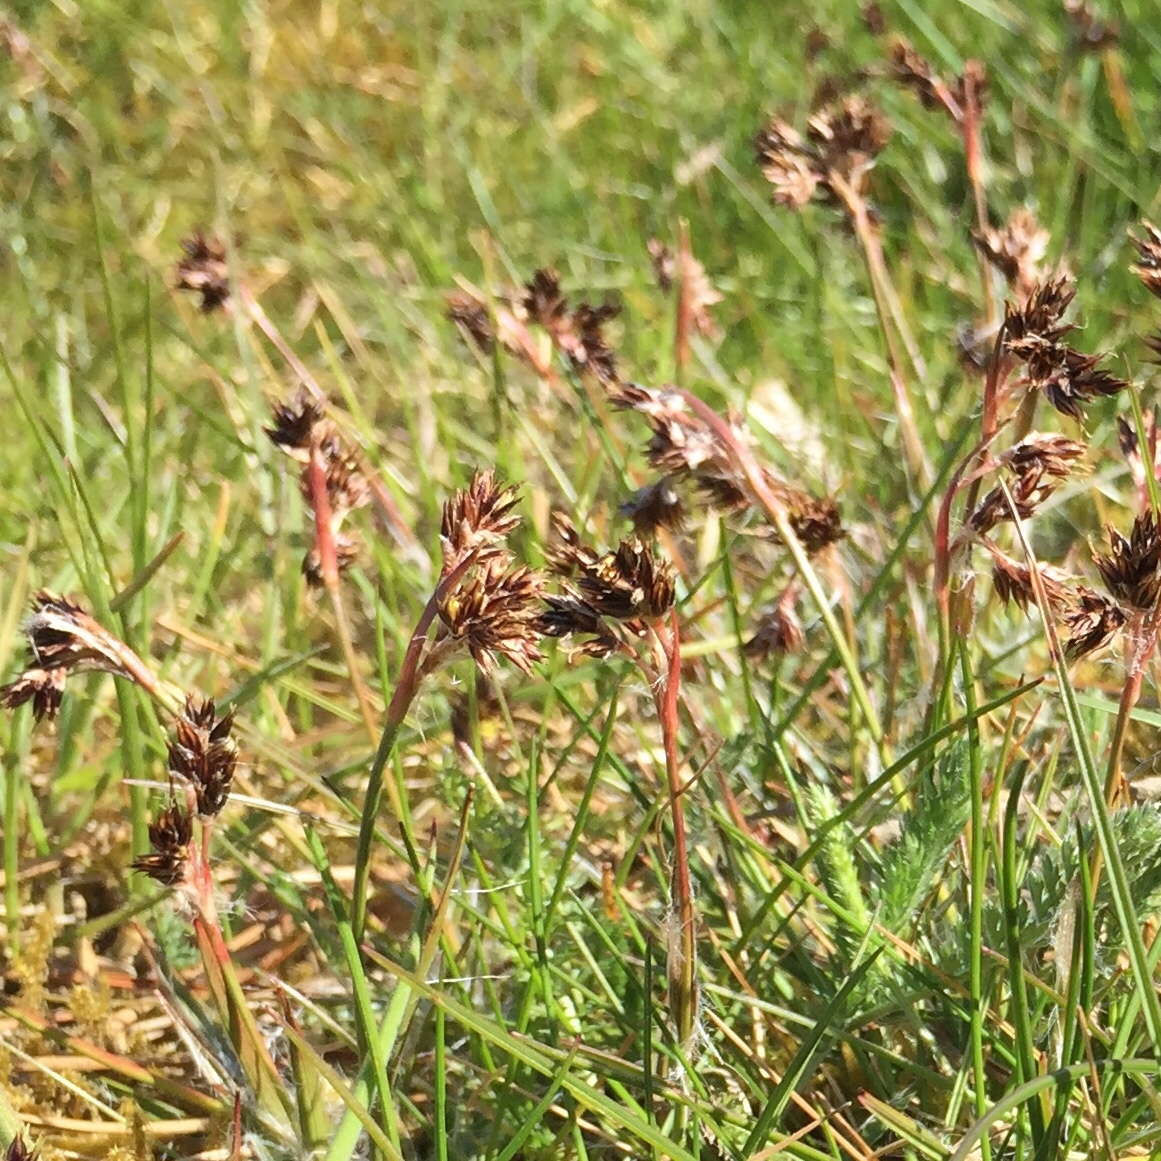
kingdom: Plantae
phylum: Tracheophyta
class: Liliopsida
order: Poales
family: Juncaceae
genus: Luzula
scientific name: Luzula campestris
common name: Field wood-rush
